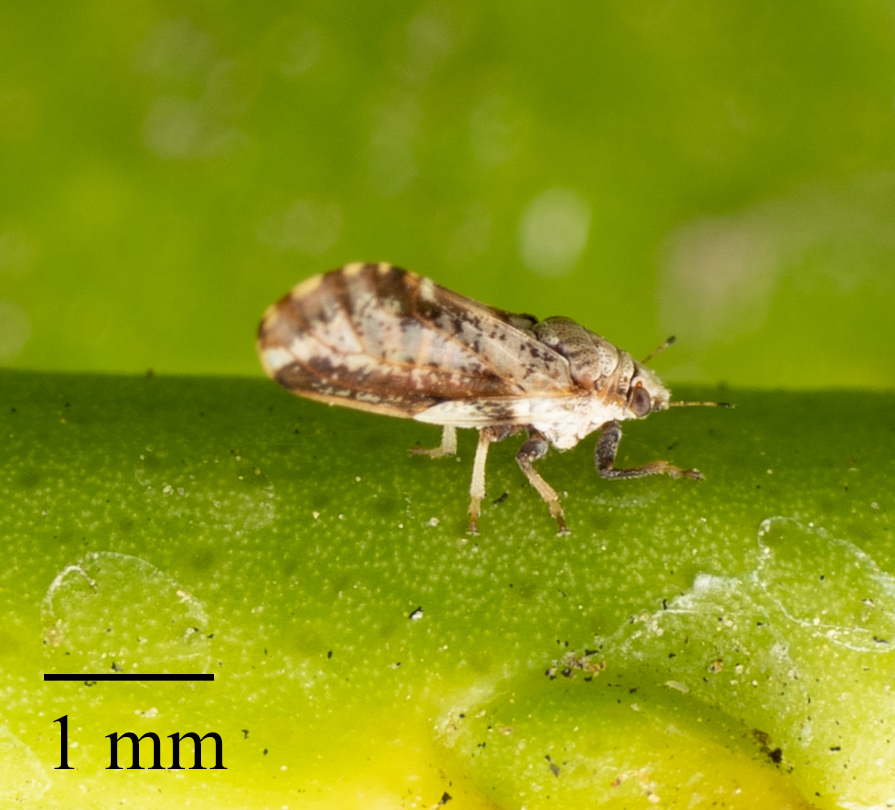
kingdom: Animalia
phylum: Arthropoda
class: Insecta
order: Hemiptera
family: Liviidae
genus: Diaphorina
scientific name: Diaphorina citri
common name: Asian citrus psyllid
